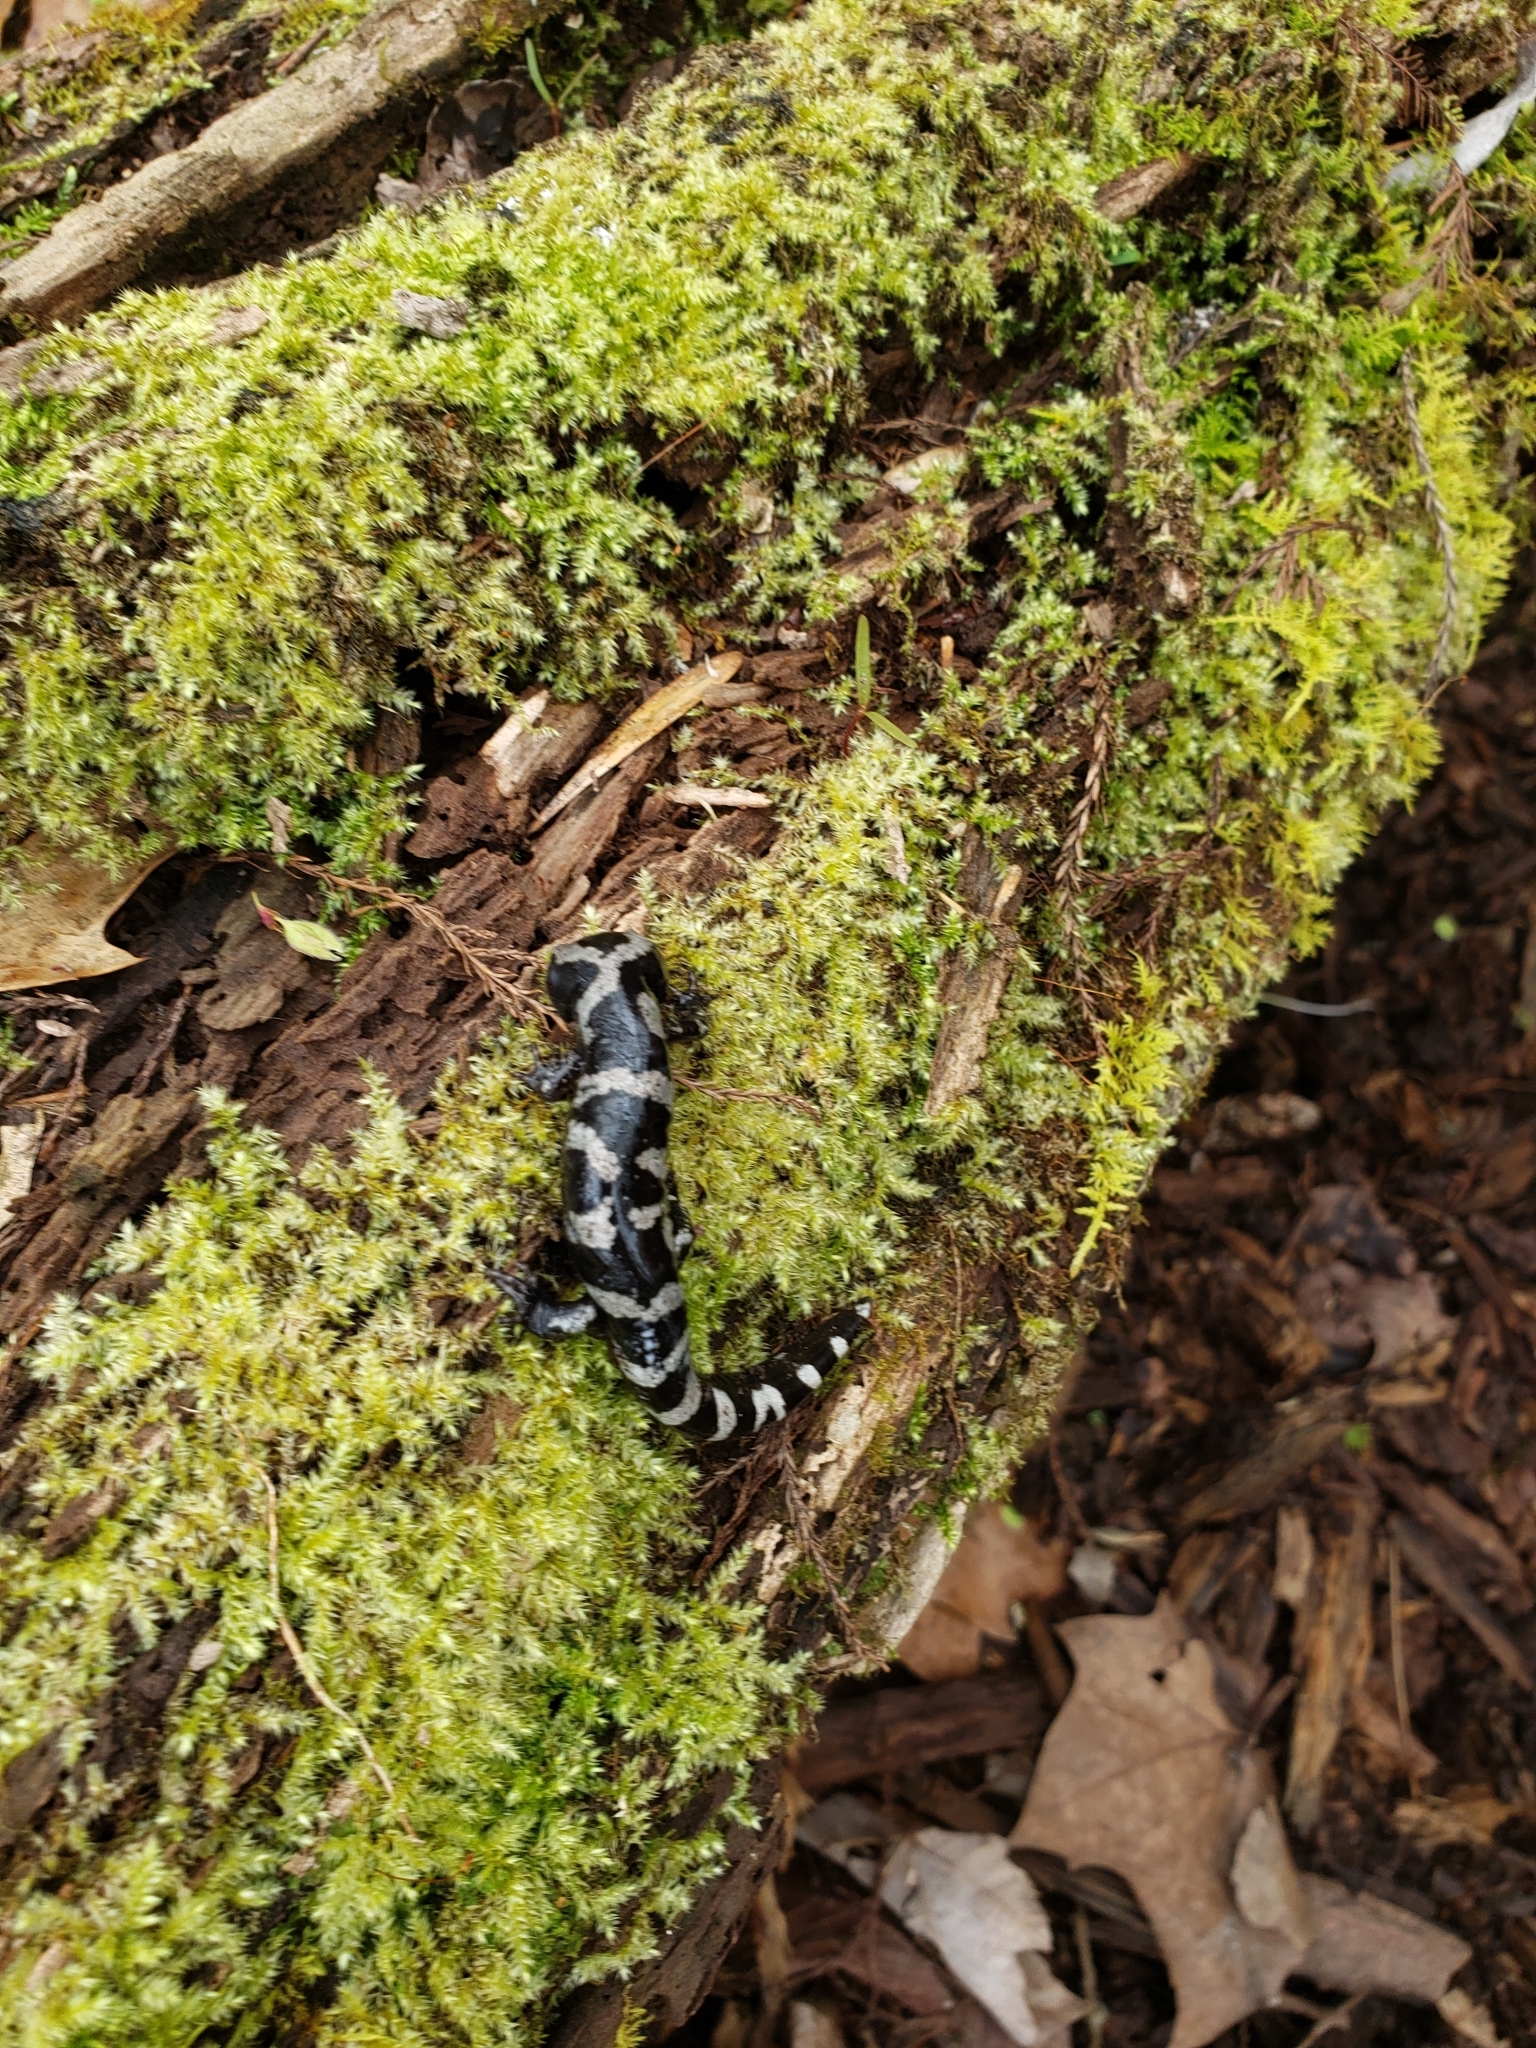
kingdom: Animalia
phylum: Chordata
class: Amphibia
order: Caudata
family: Ambystomatidae
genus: Ambystoma
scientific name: Ambystoma opacum
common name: Marbled salamander
